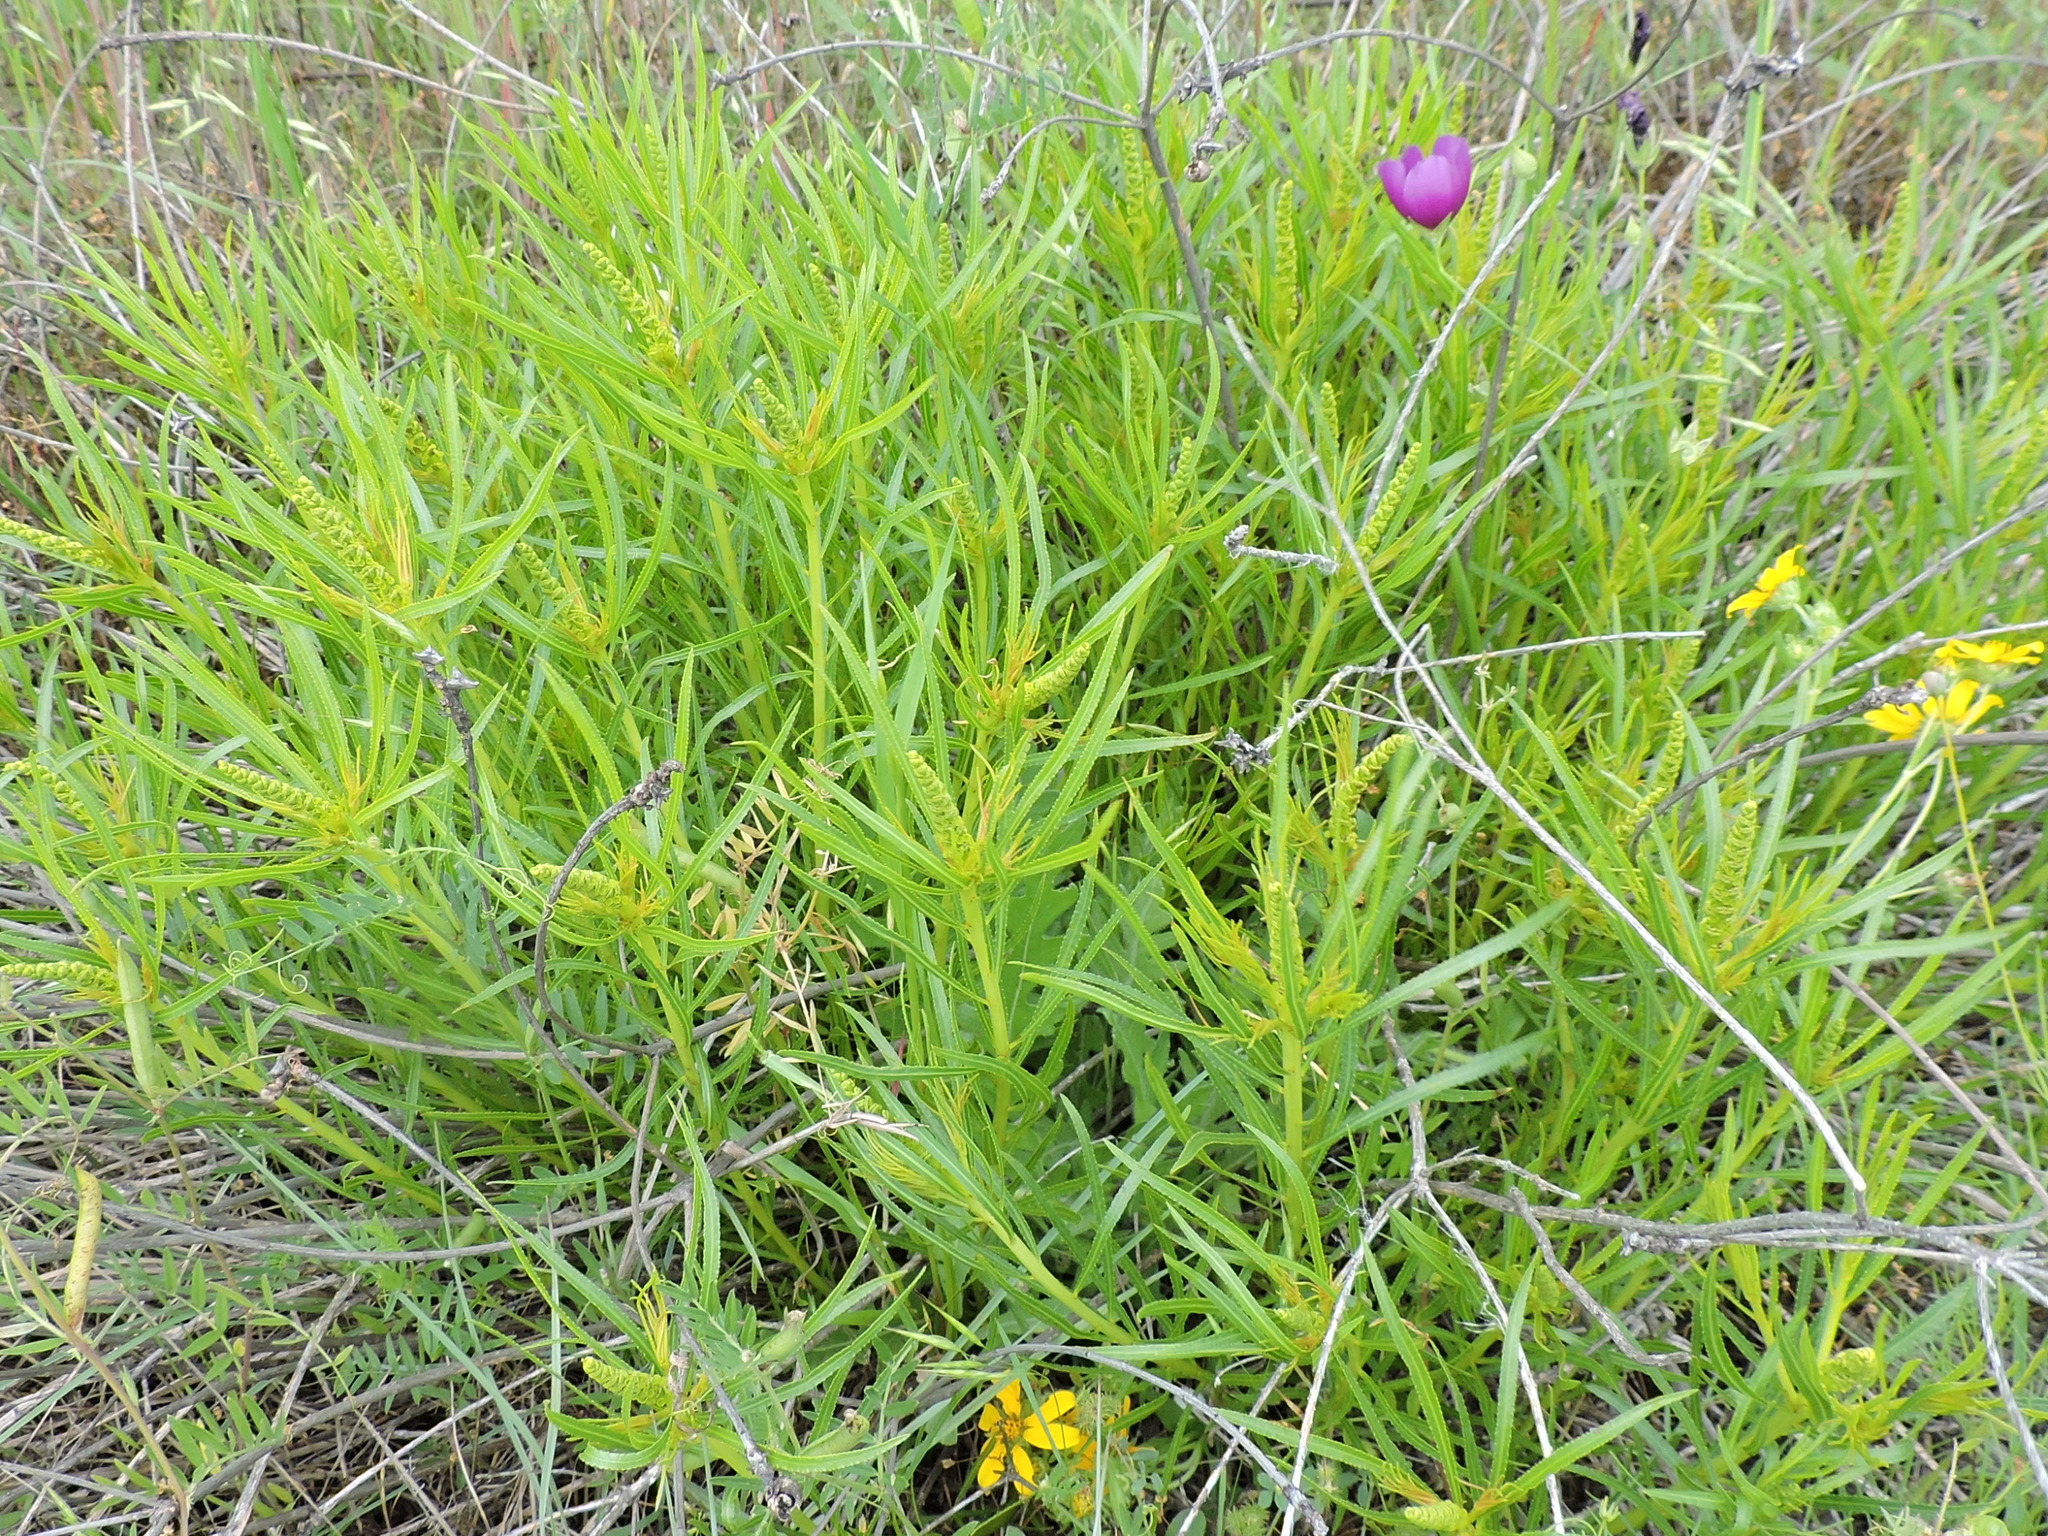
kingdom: Plantae
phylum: Tracheophyta
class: Magnoliopsida
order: Malpighiales
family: Euphorbiaceae
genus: Stillingia
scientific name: Stillingia texana
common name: Texas stillingia
